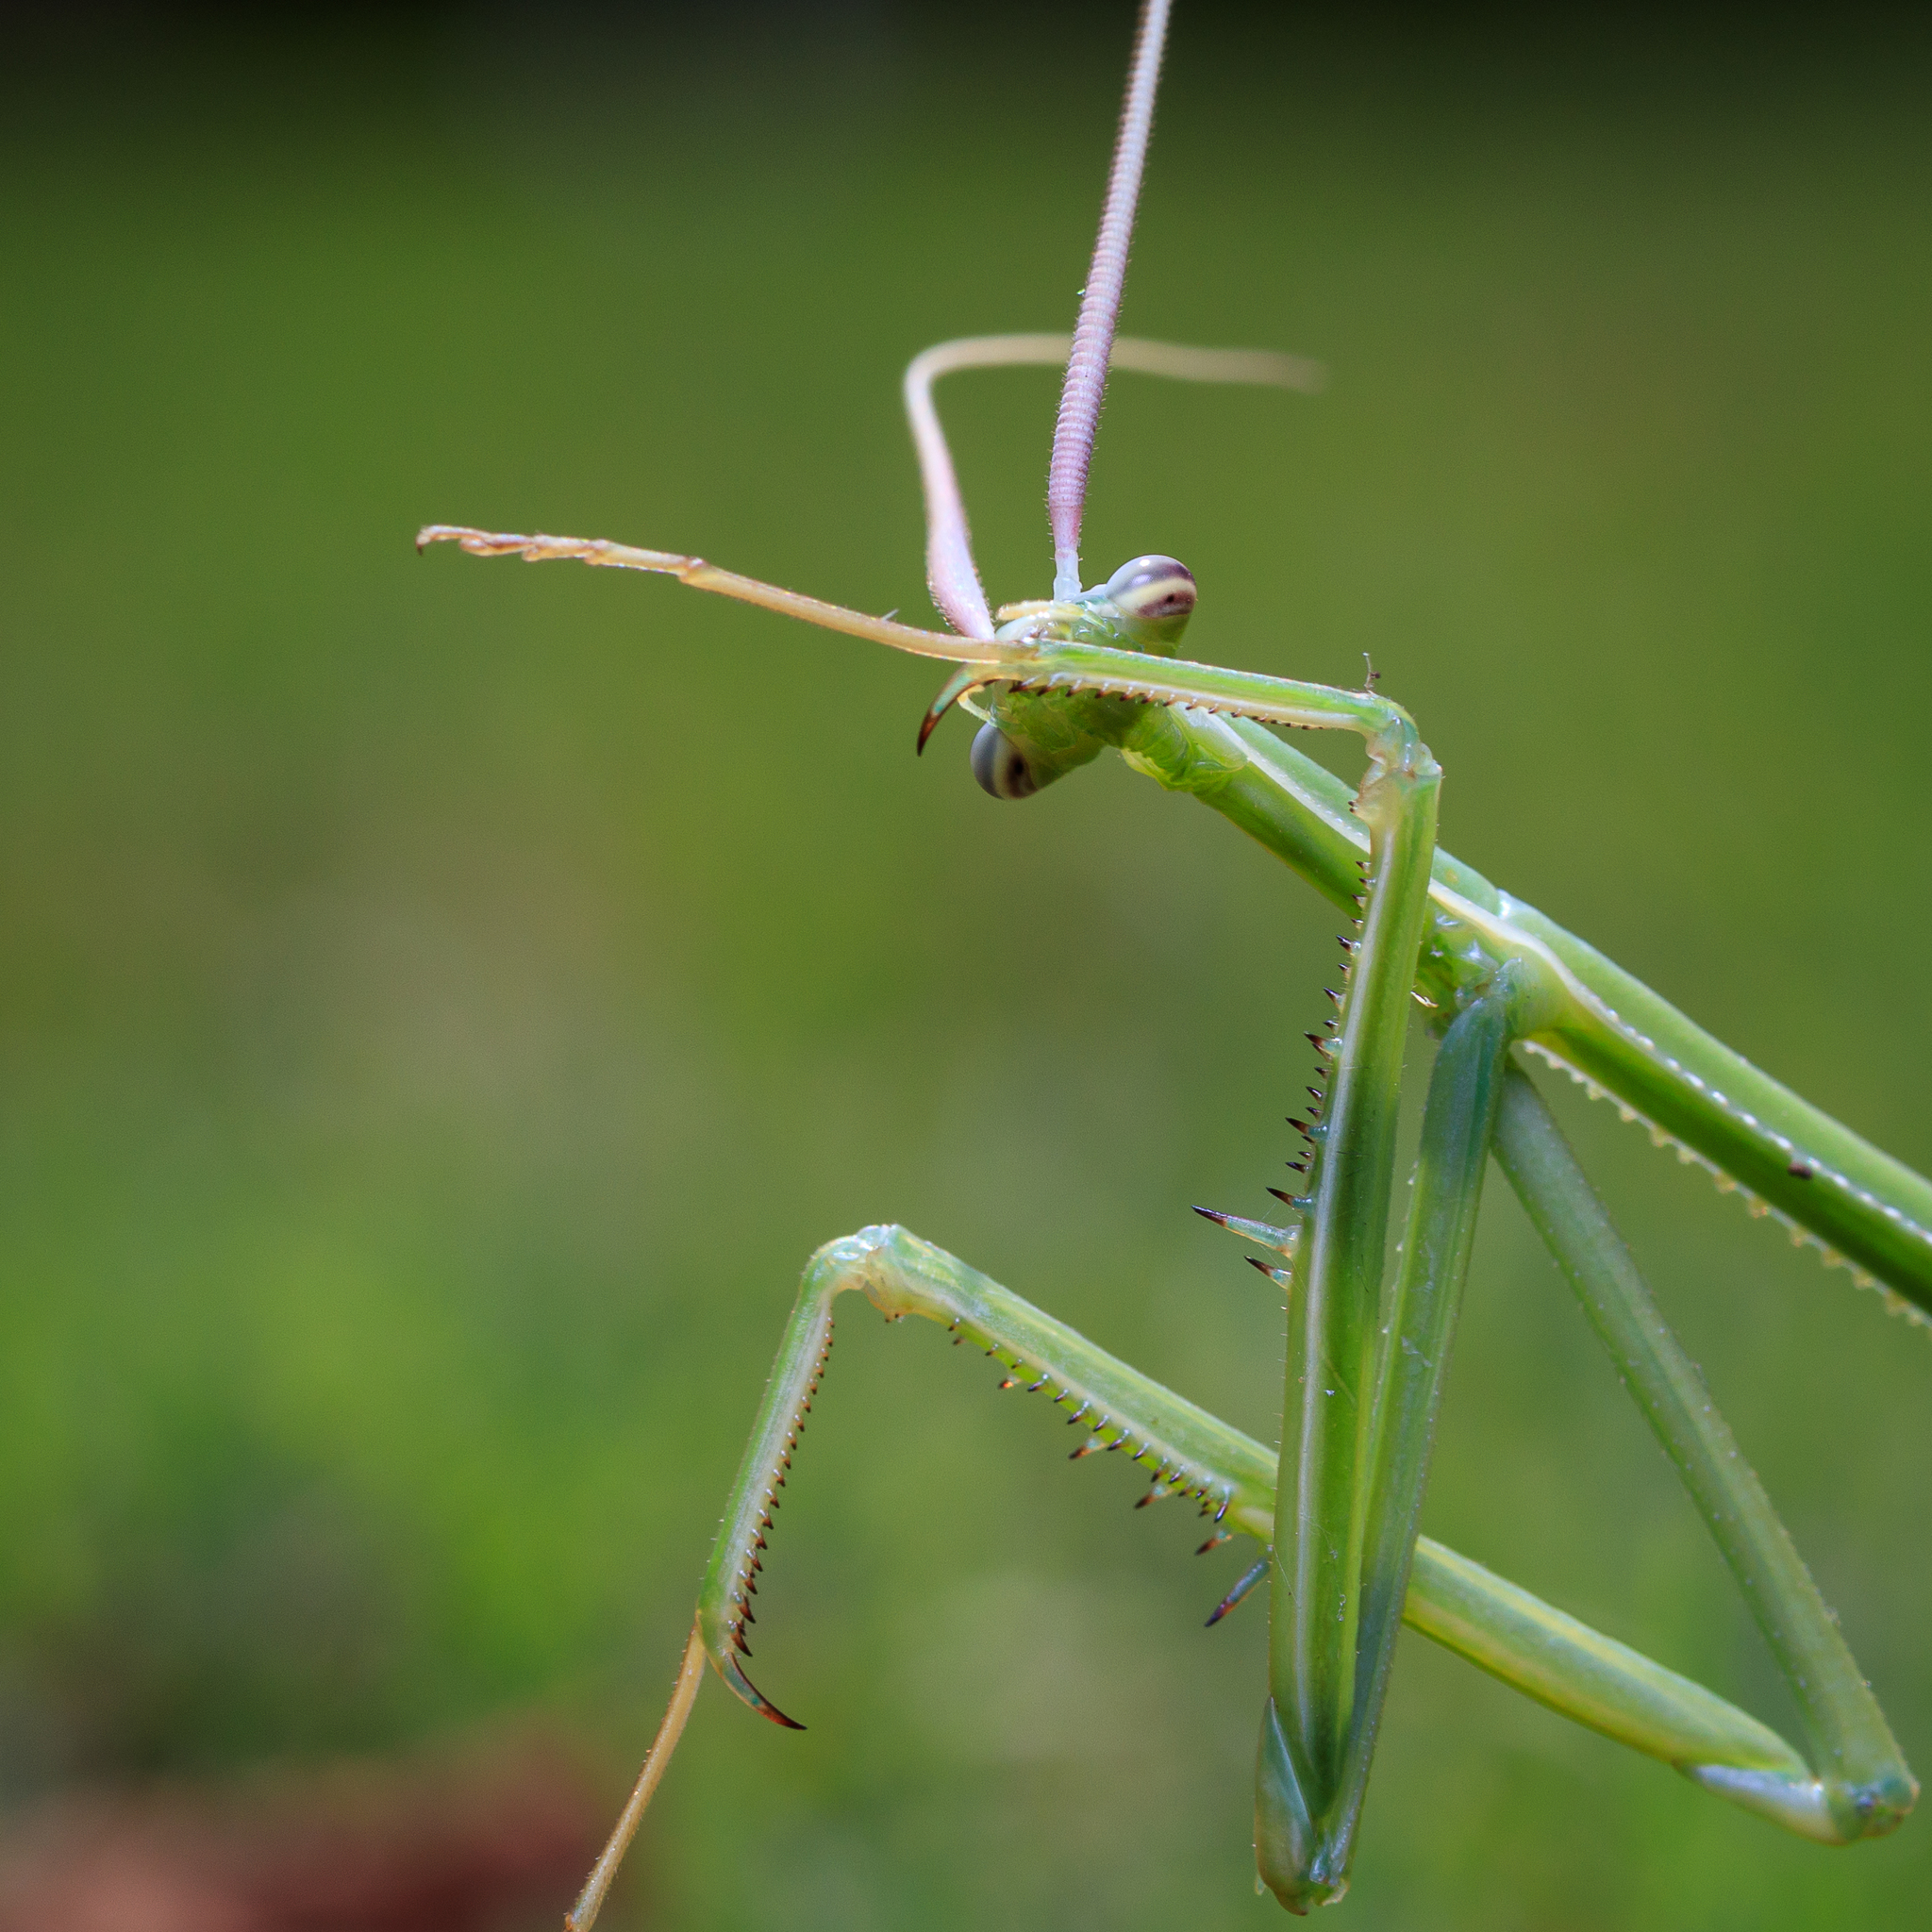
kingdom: Animalia
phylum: Arthropoda
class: Insecta
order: Mantodea
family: Coptopterygidae
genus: Brunneria
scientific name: Brunneria borealis
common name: Mantis
